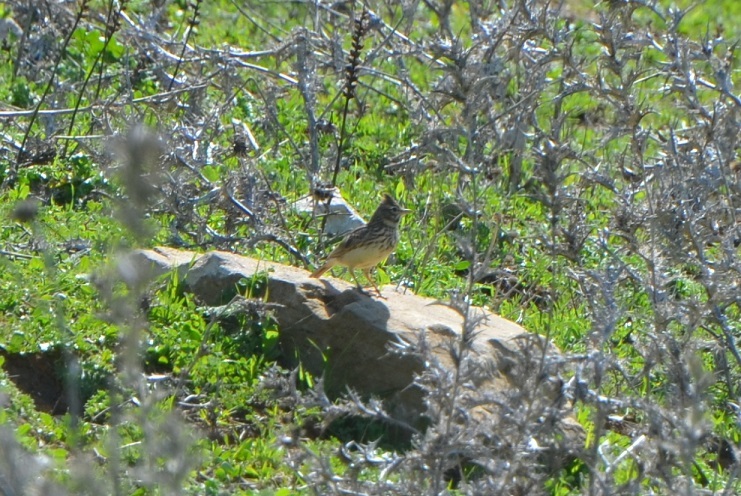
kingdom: Animalia
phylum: Chordata
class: Aves
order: Passeriformes
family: Alaudidae
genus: Galerida
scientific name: Galerida theklae
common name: Thekla lark
